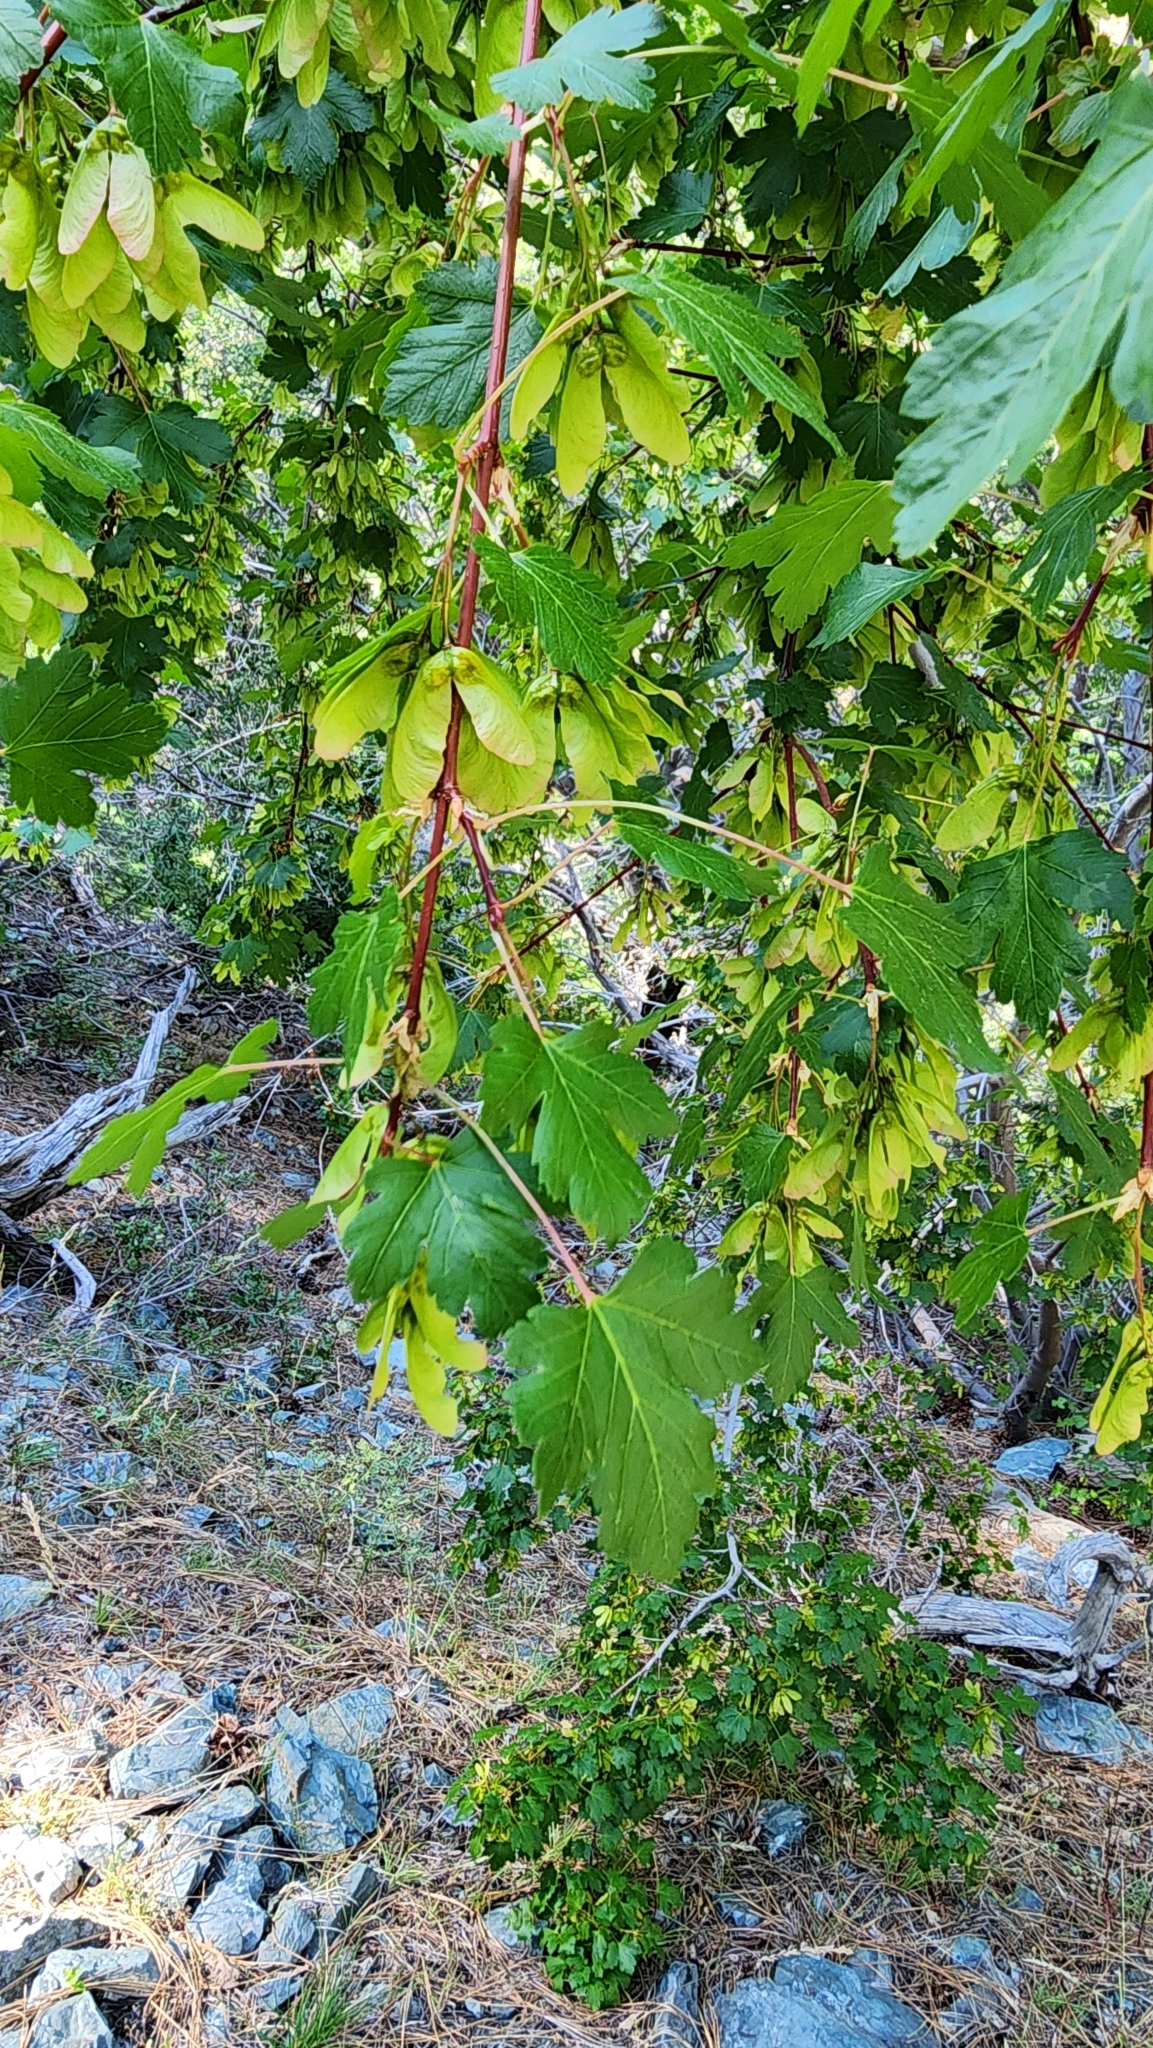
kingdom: Plantae
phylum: Tracheophyta
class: Magnoliopsida
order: Sapindales
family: Sapindaceae
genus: Acer
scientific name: Acer glabrum
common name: Rocky mountain maple
